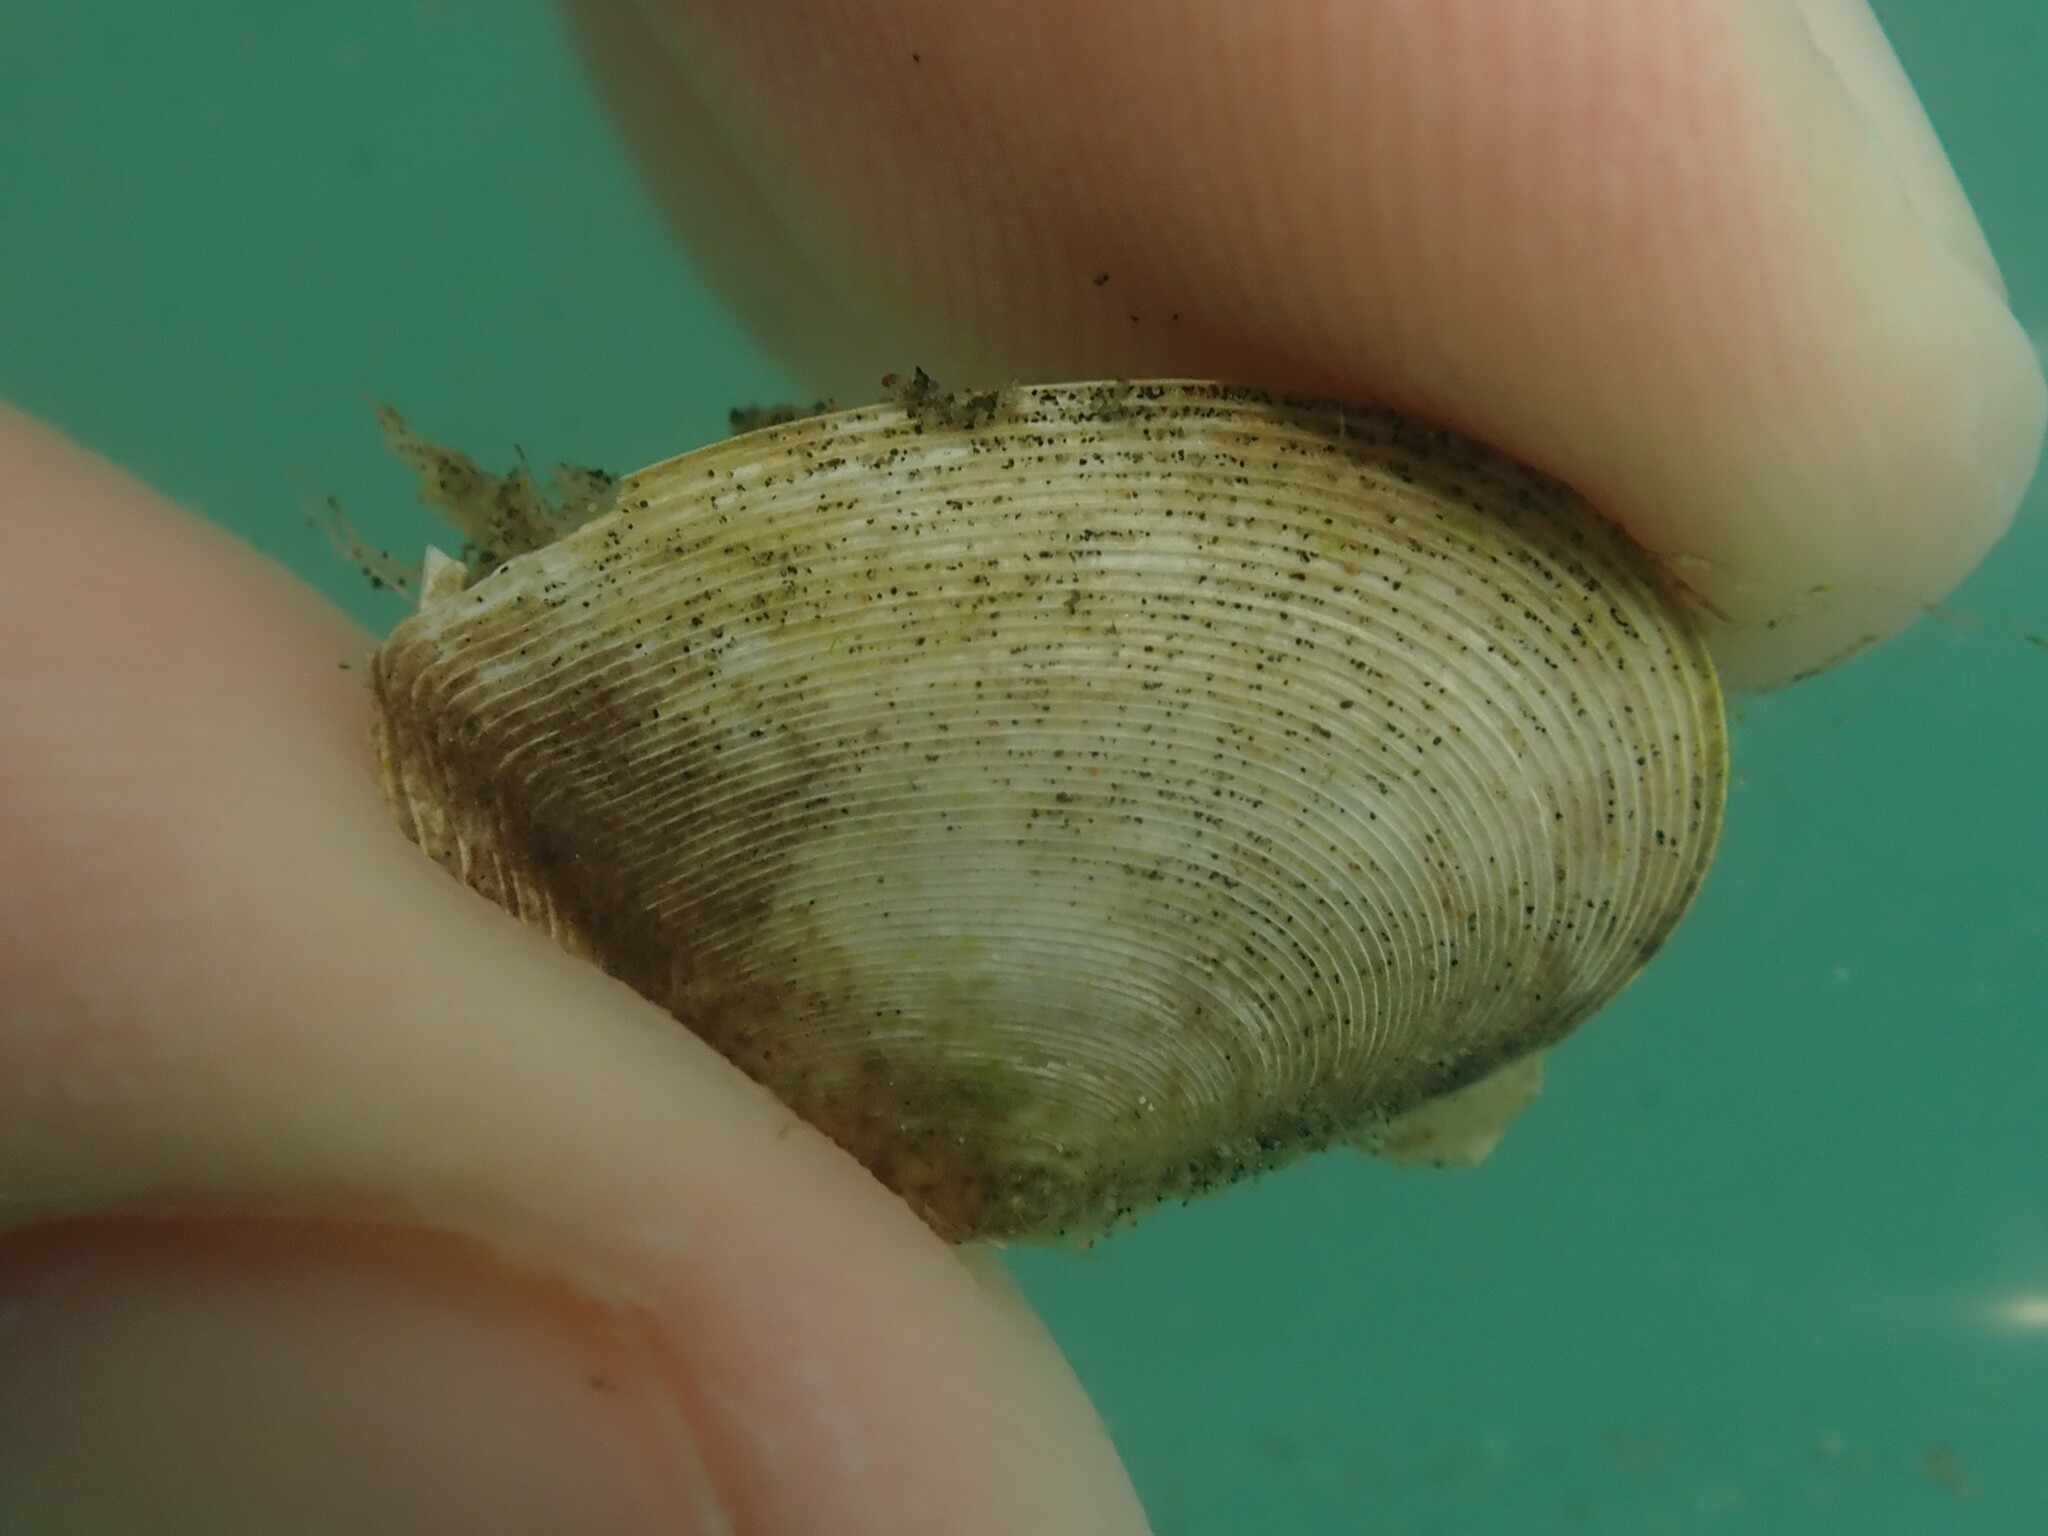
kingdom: Animalia
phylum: Mollusca
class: Bivalvia
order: Cardiida
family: Tellinidae
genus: Serratina
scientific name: Serratina charlottae
